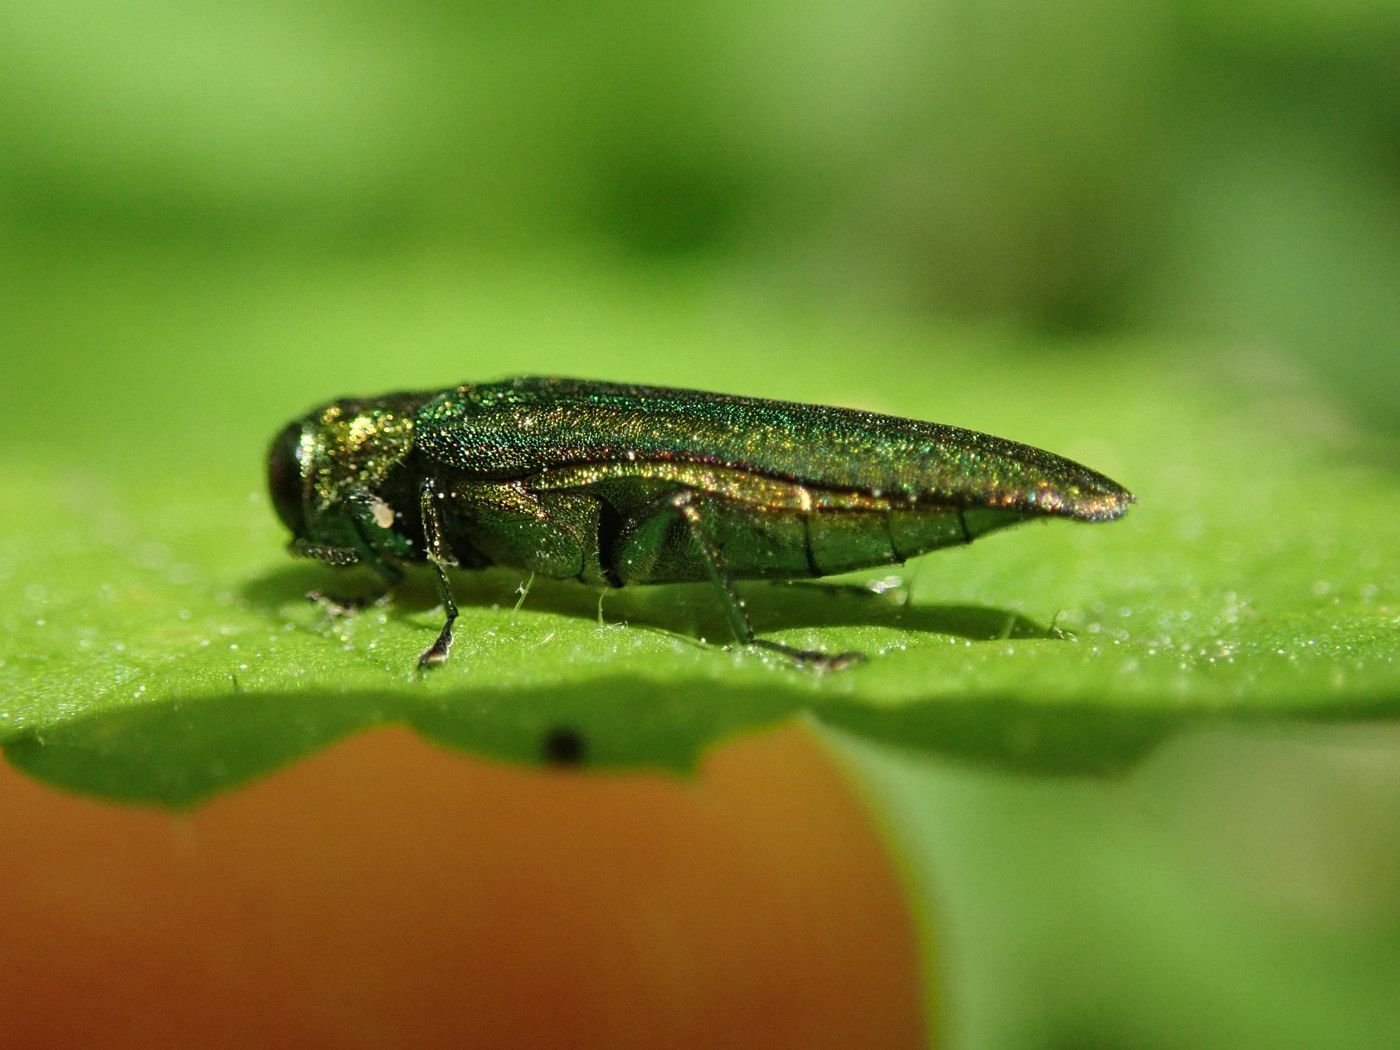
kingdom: Animalia
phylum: Arthropoda
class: Insecta
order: Coleoptera
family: Buprestidae
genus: Agrilus
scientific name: Agrilus planipennis
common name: Emerald ash borer
